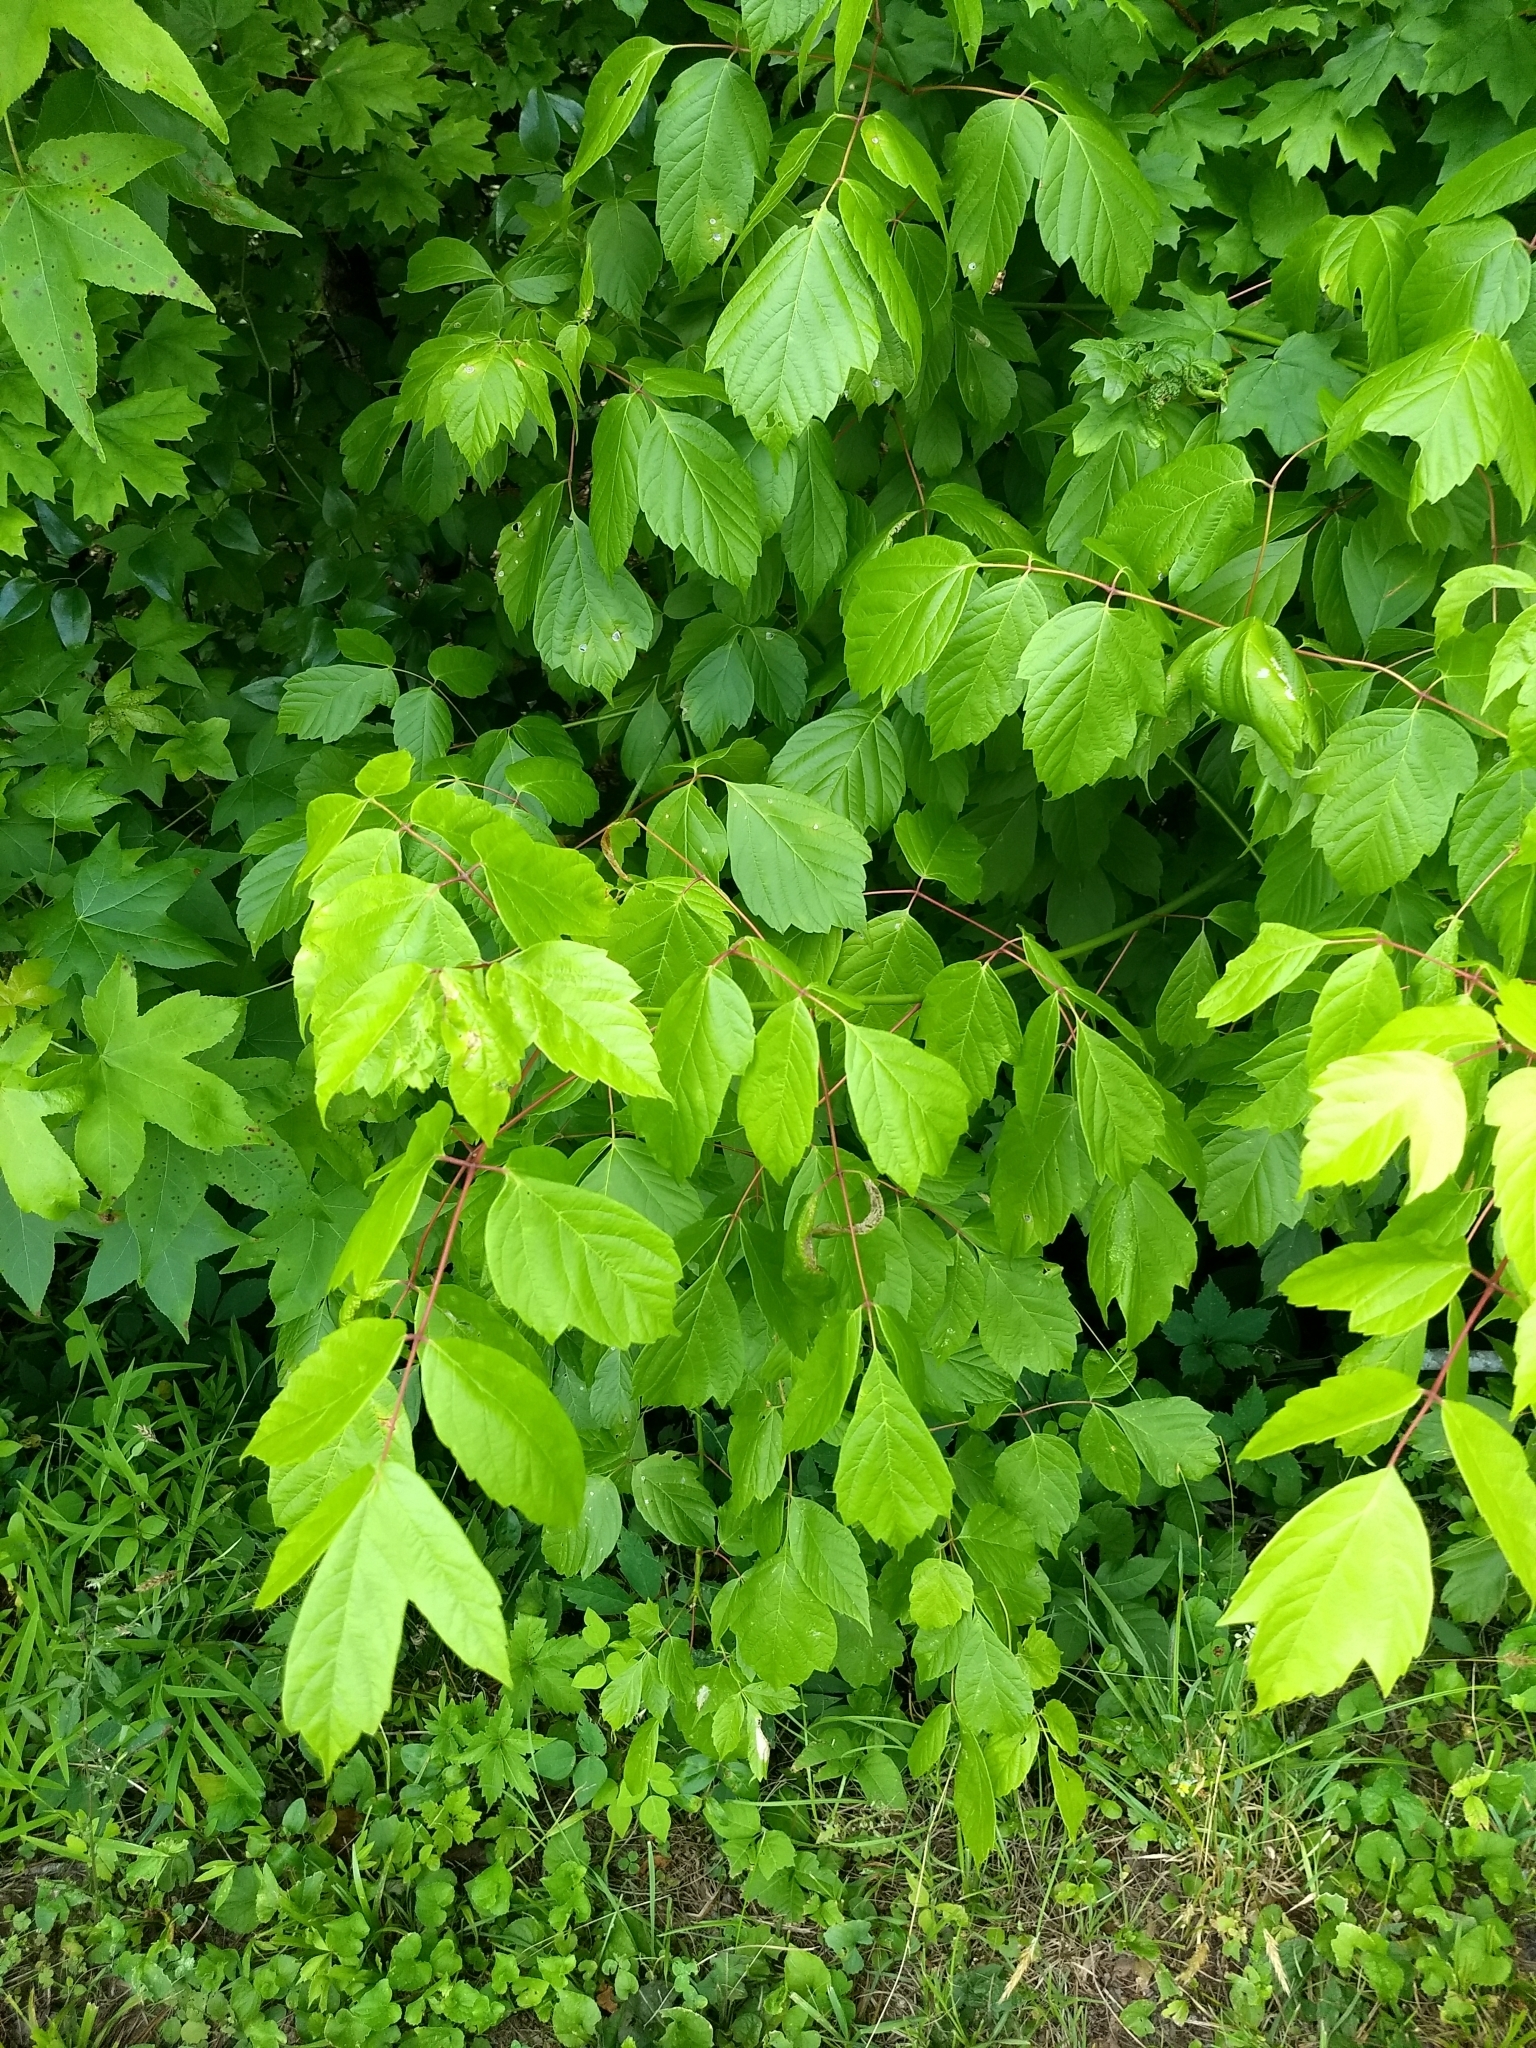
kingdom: Plantae
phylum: Tracheophyta
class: Magnoliopsida
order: Sapindales
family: Sapindaceae
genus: Acer
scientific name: Acer negundo
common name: Ashleaf maple
